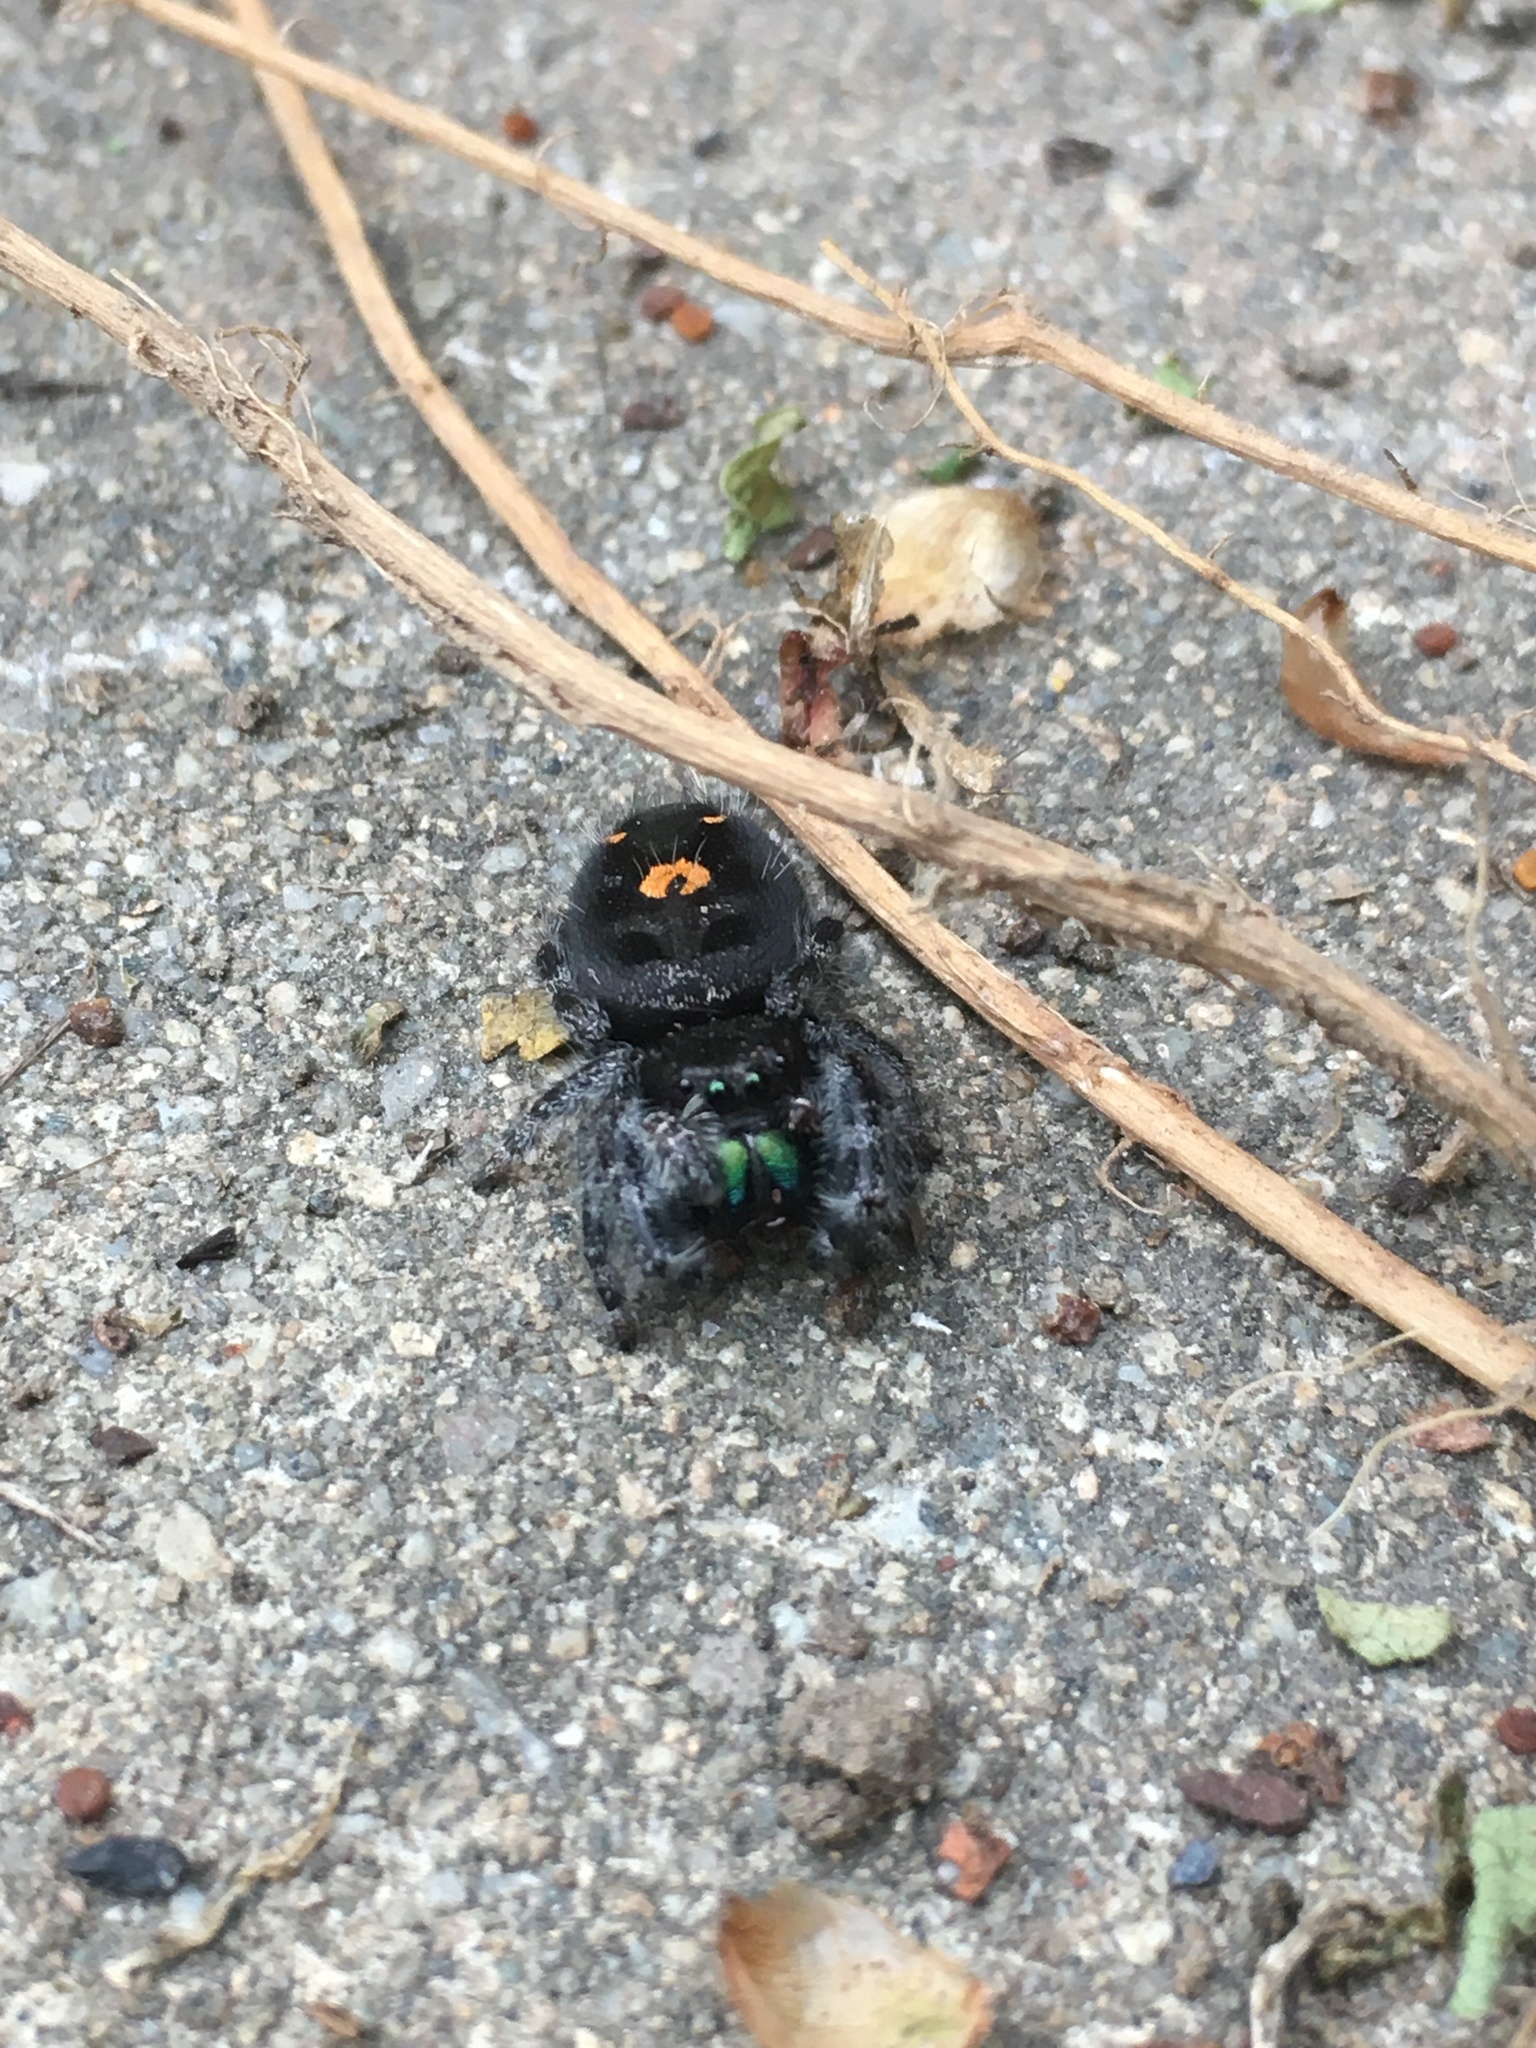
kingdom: Animalia
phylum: Arthropoda
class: Arachnida
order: Araneae
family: Salticidae
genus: Phidippus
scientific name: Phidippus audax
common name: Bold jumper
